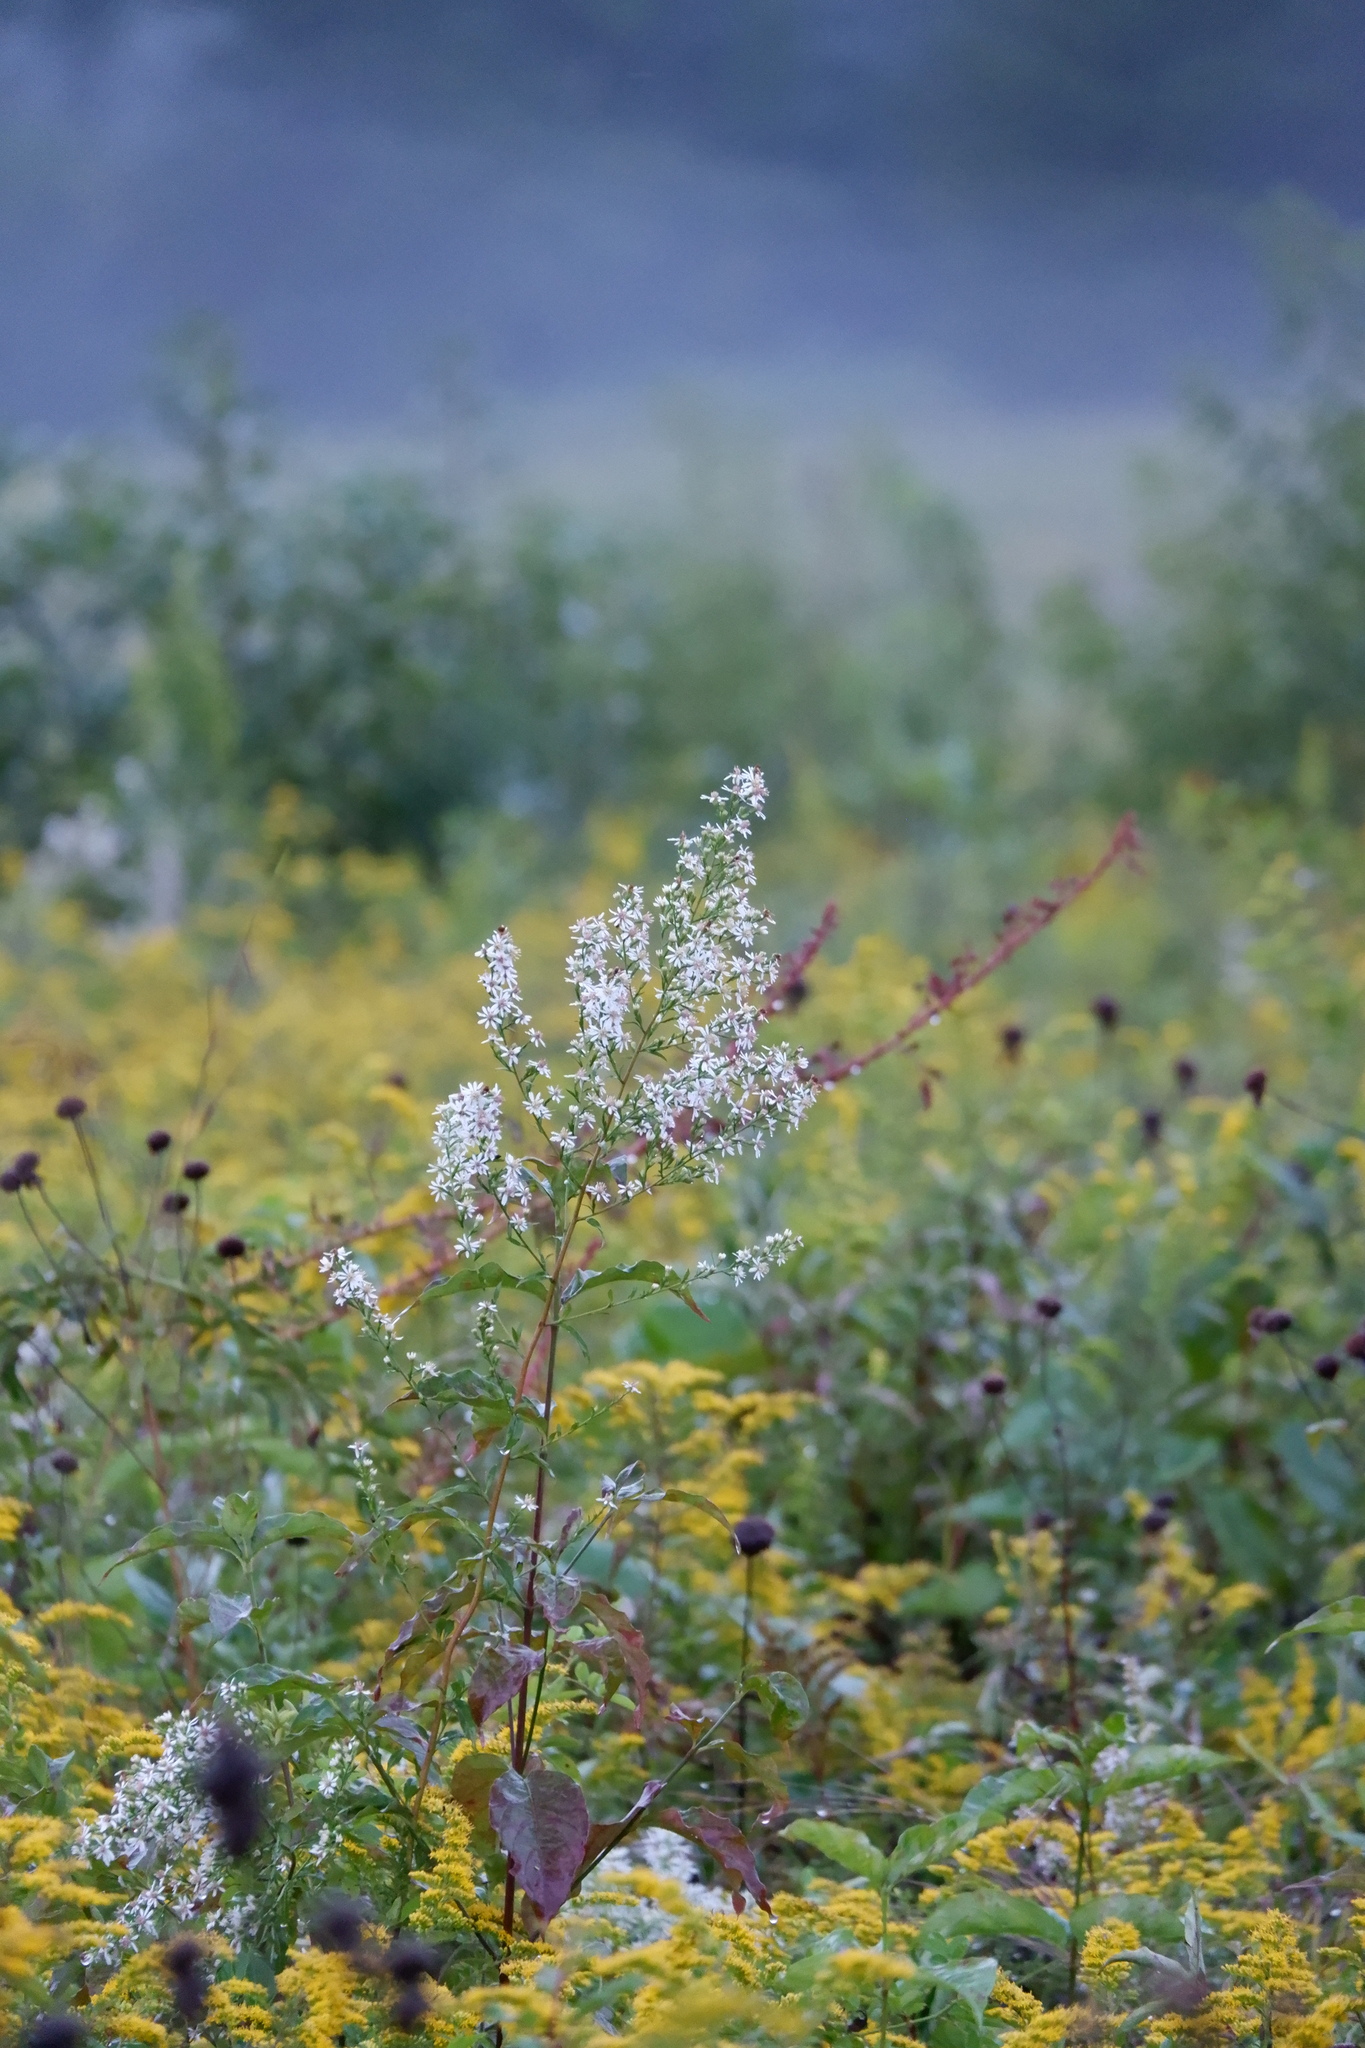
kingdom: Plantae
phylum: Tracheophyta
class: Magnoliopsida
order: Asterales
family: Asteraceae
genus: Symphyotrichum
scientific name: Symphyotrichum urophyllum
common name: Arrow-leaved aster
